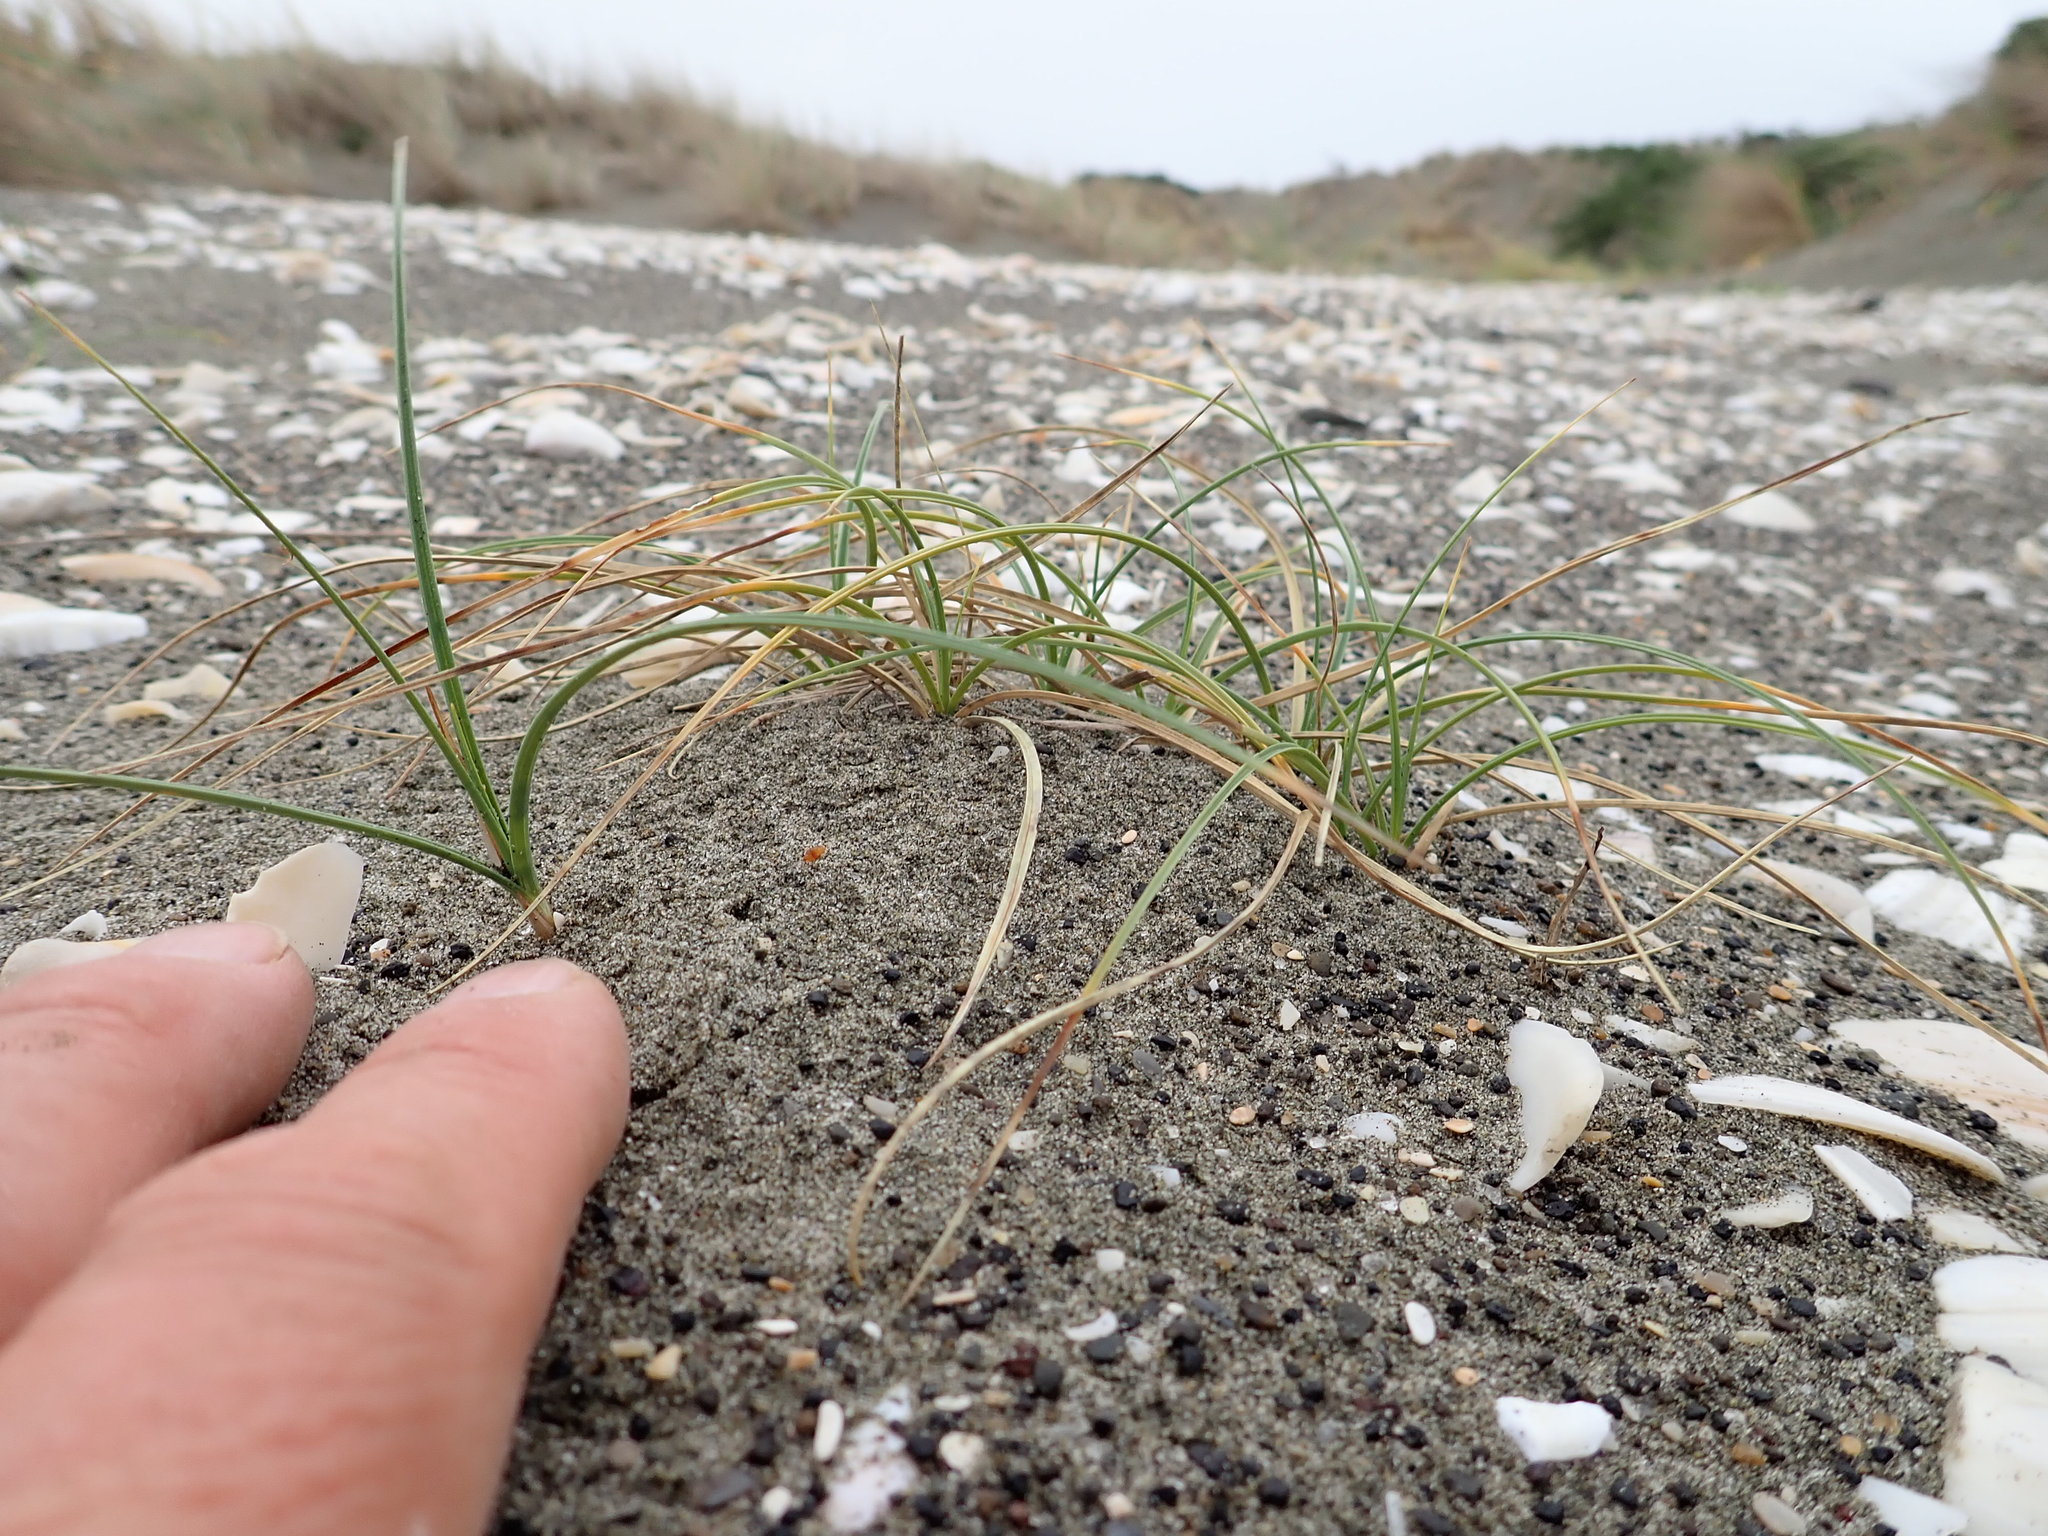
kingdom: Plantae
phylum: Tracheophyta
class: Liliopsida
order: Poales
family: Cyperaceae
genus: Carex
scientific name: Carex pumila
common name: Dwarf sedge
